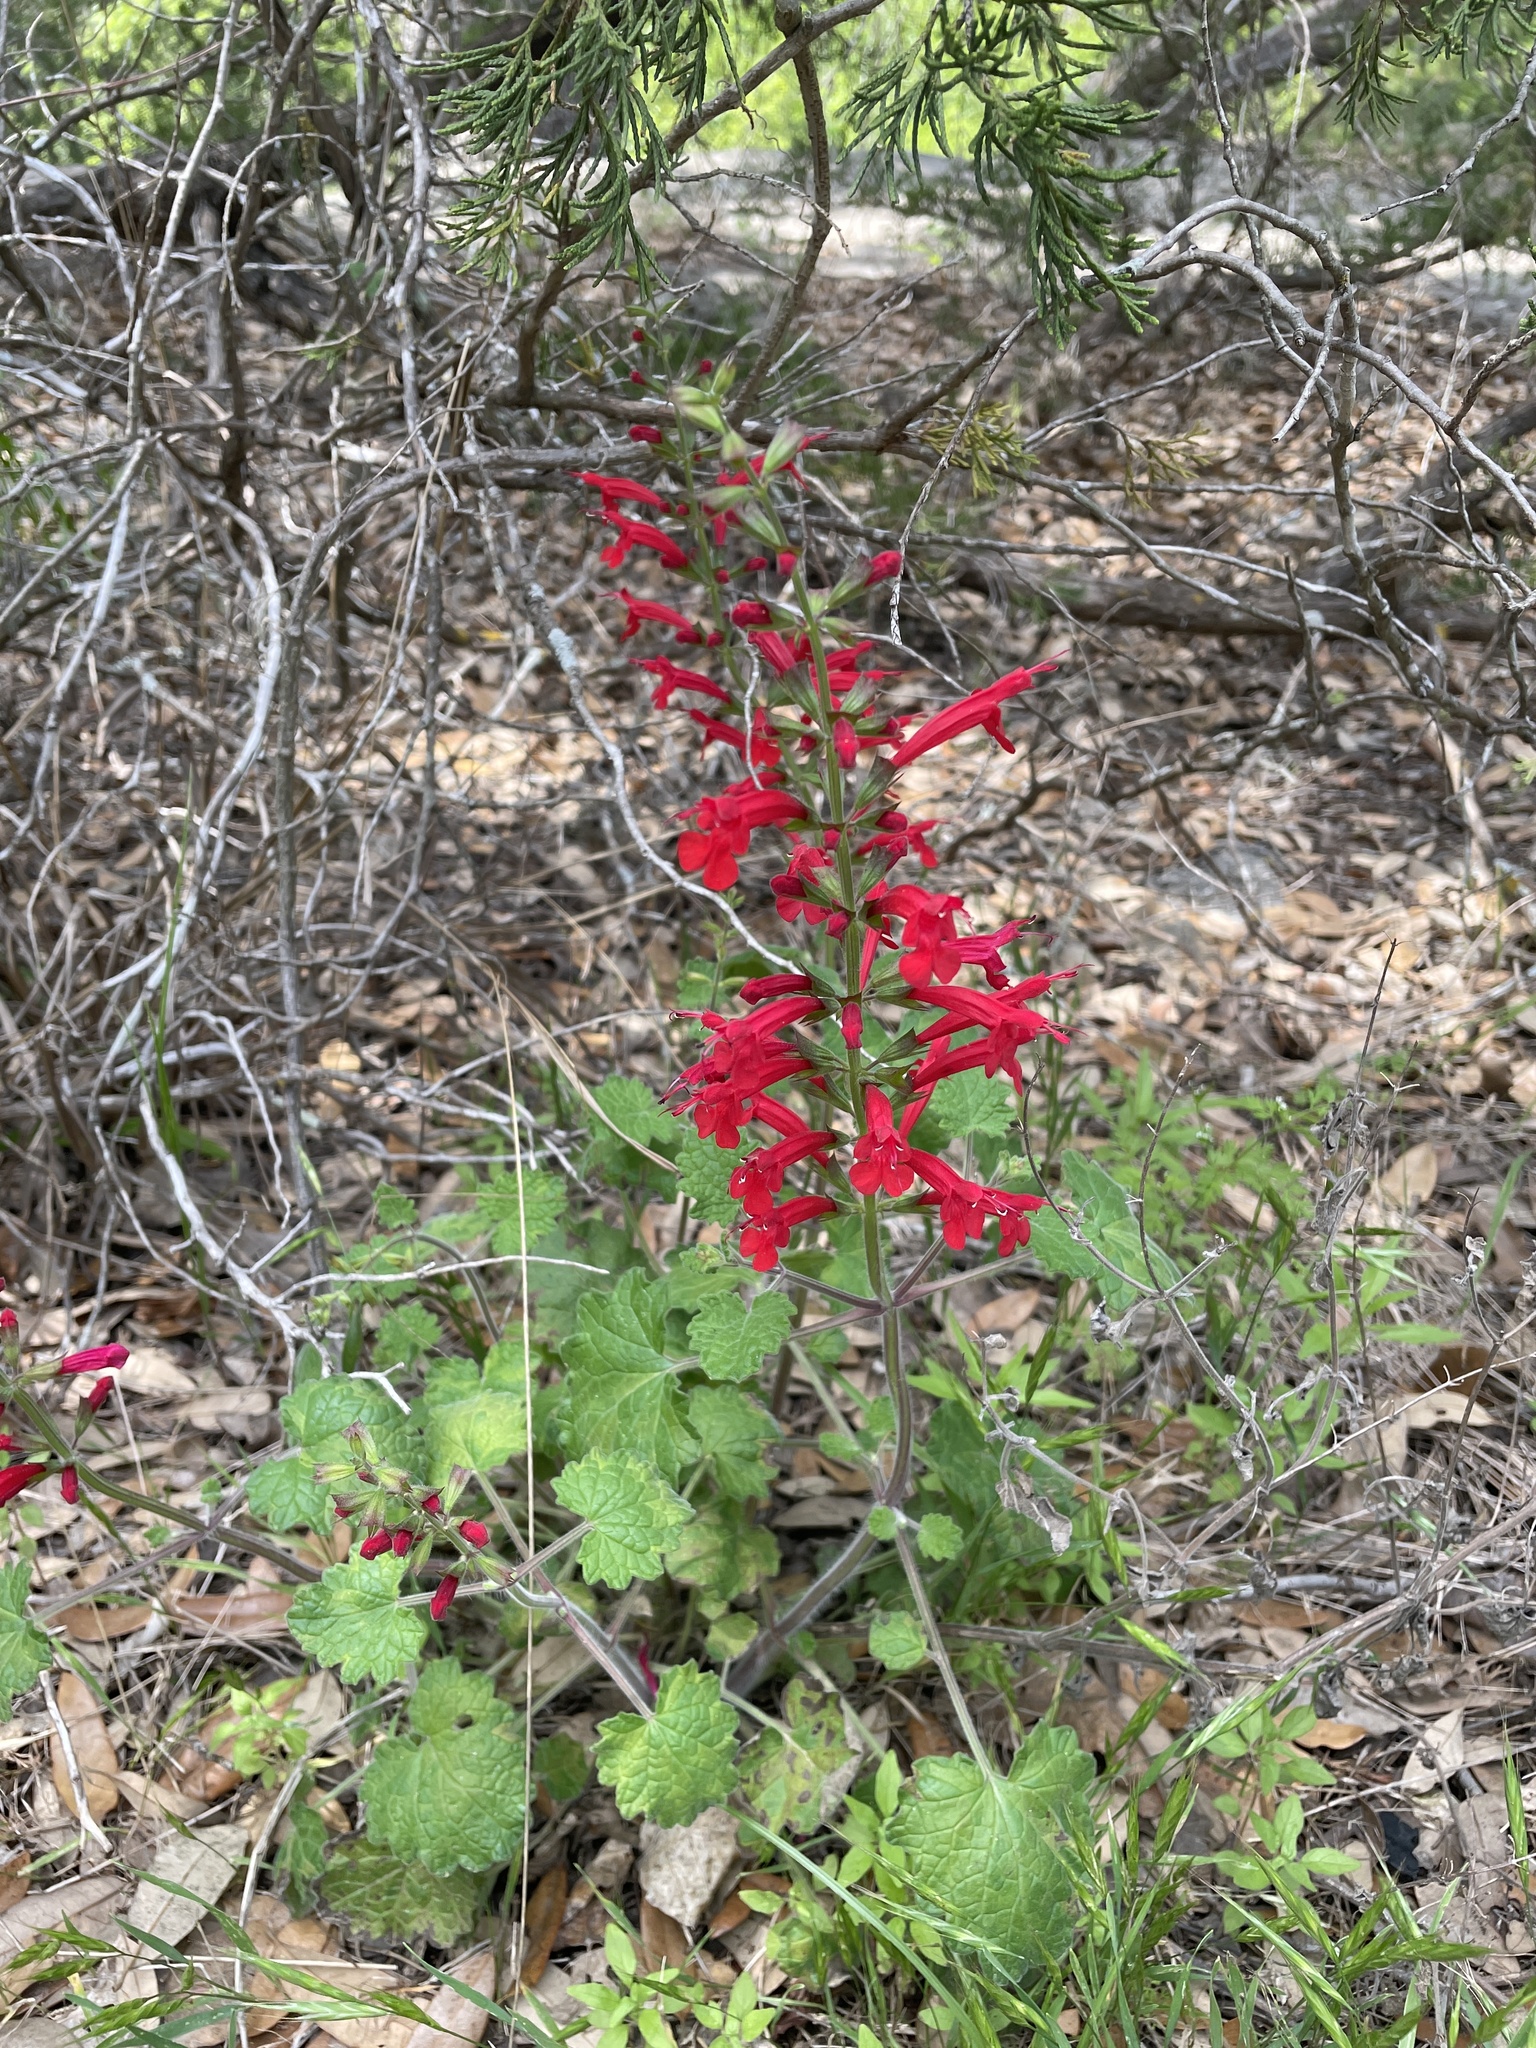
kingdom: Plantae
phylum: Tracheophyta
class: Magnoliopsida
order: Lamiales
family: Lamiaceae
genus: Salvia
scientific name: Salvia roemeriana
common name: Cedar sage
